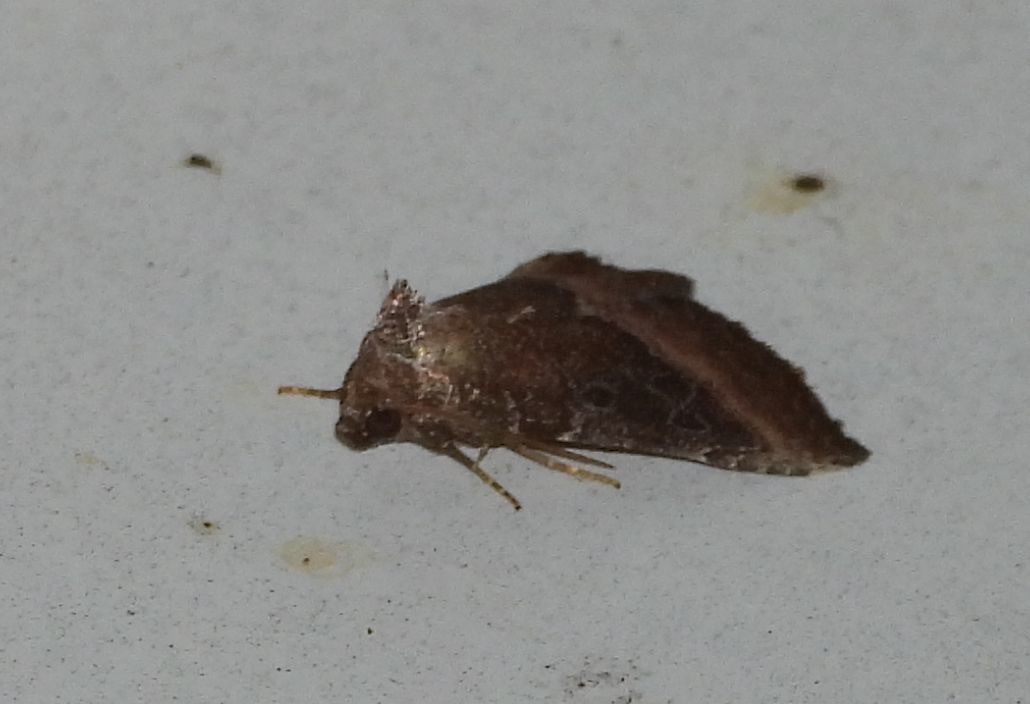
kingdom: Animalia
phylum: Arthropoda
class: Insecta
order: Lepidoptera
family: Noctuidae
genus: Ogdoconta
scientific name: Ogdoconta cinereola
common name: Common pinkband
